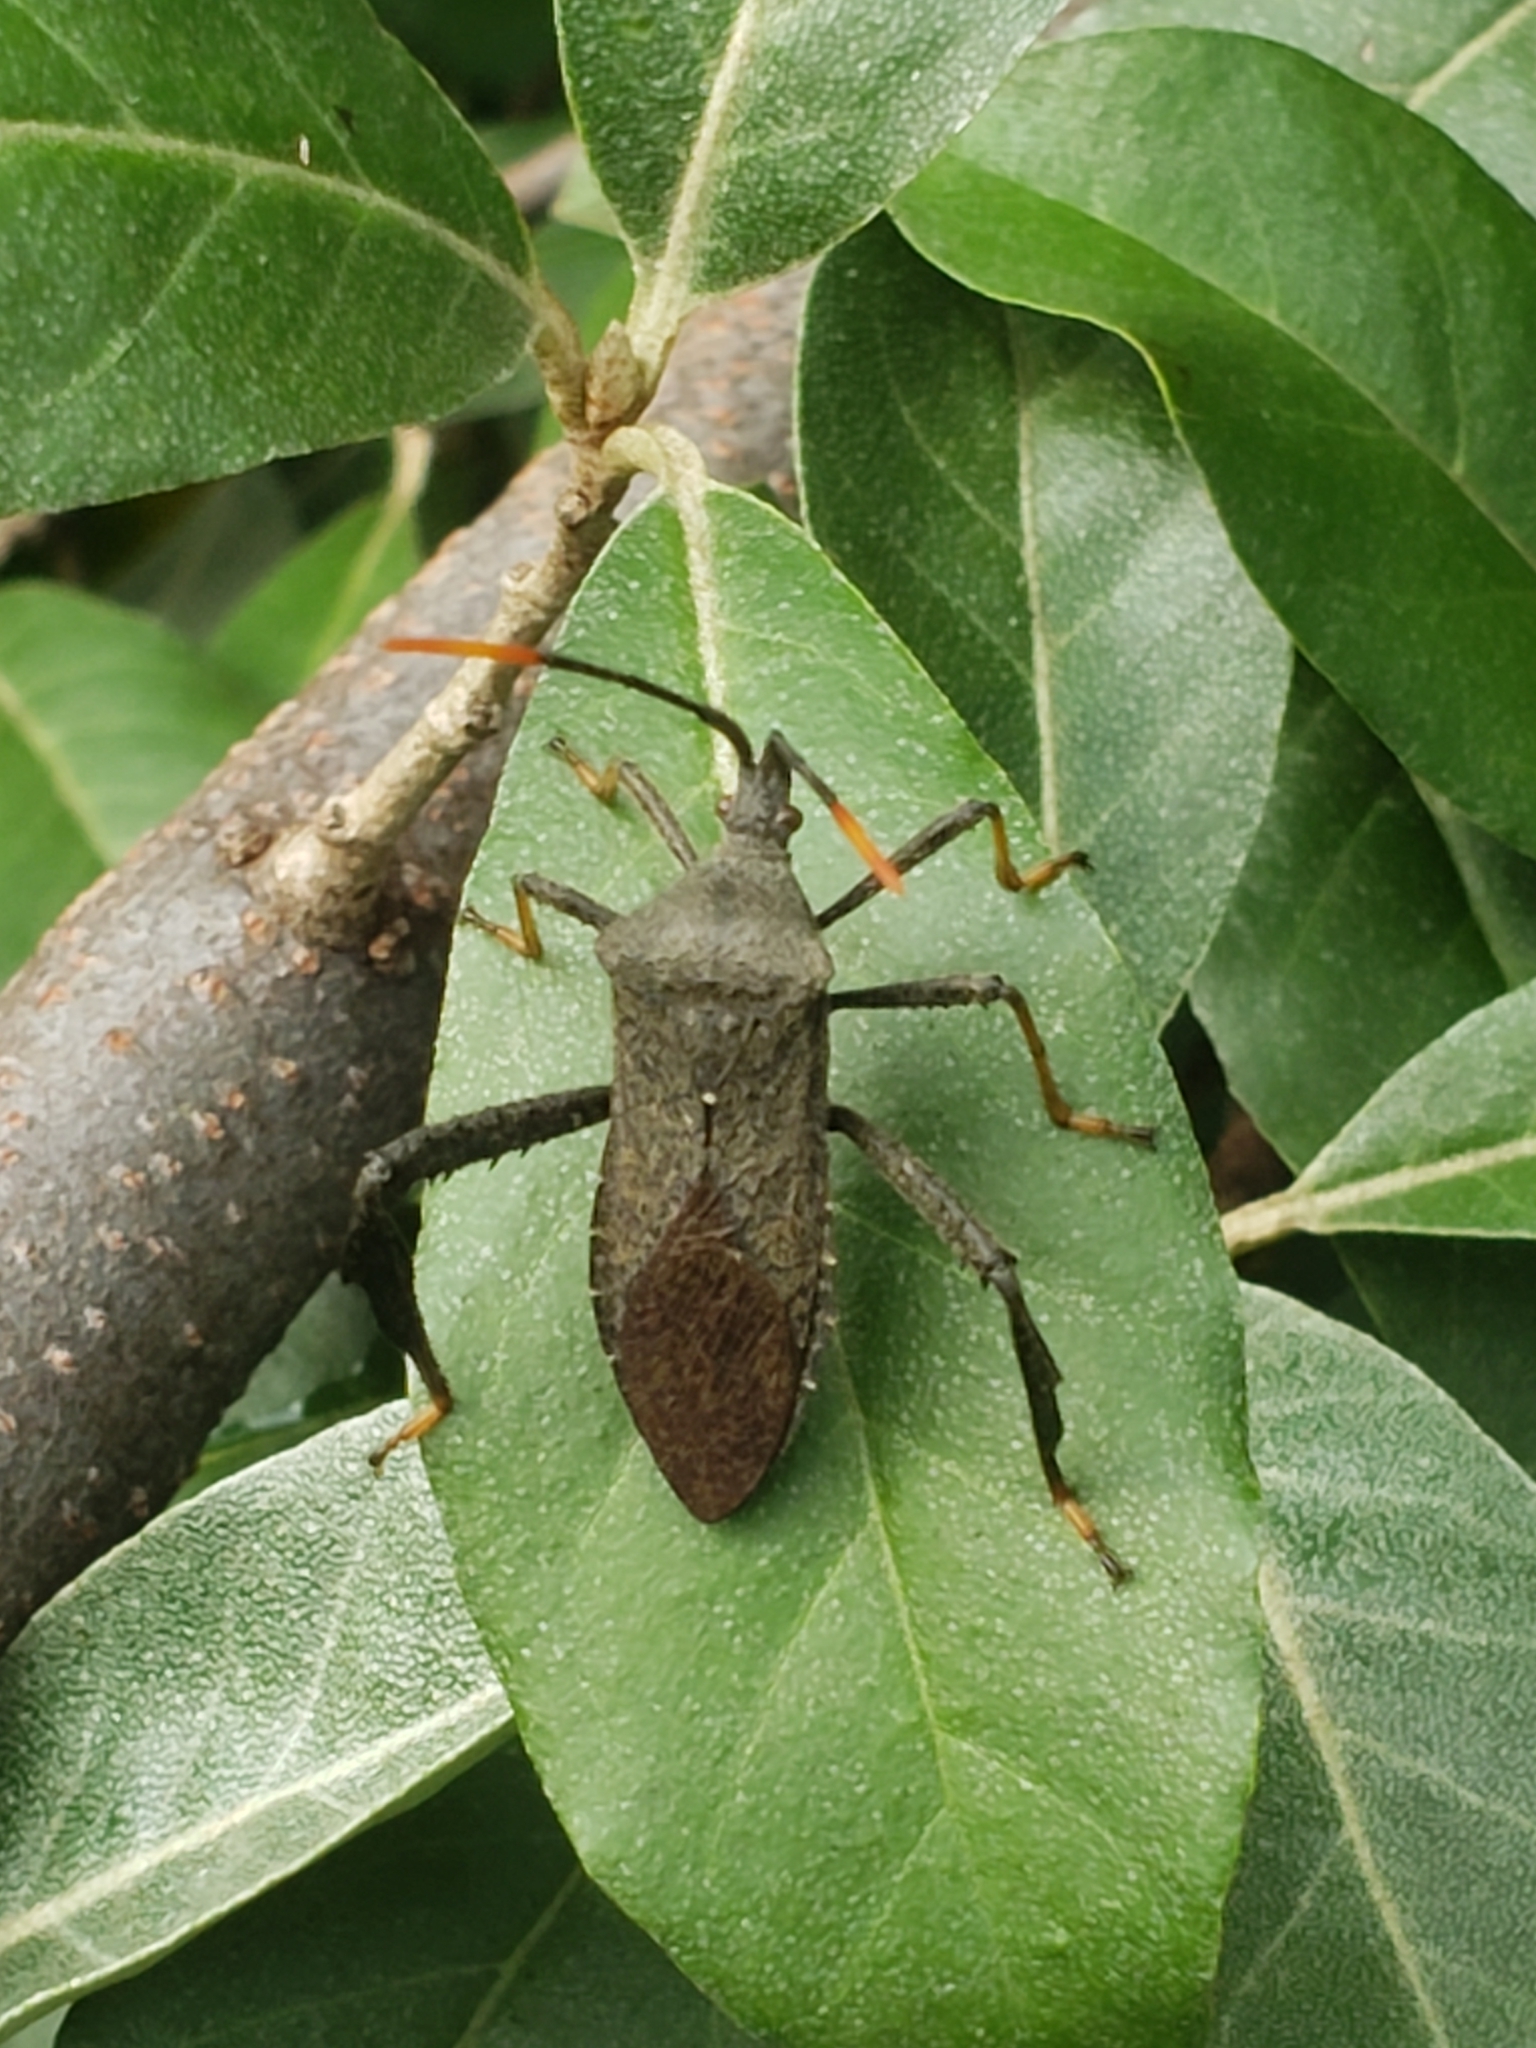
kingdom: Animalia
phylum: Arthropoda
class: Insecta
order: Hemiptera
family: Coreidae
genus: Acanthocephala
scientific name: Acanthocephala terminalis
